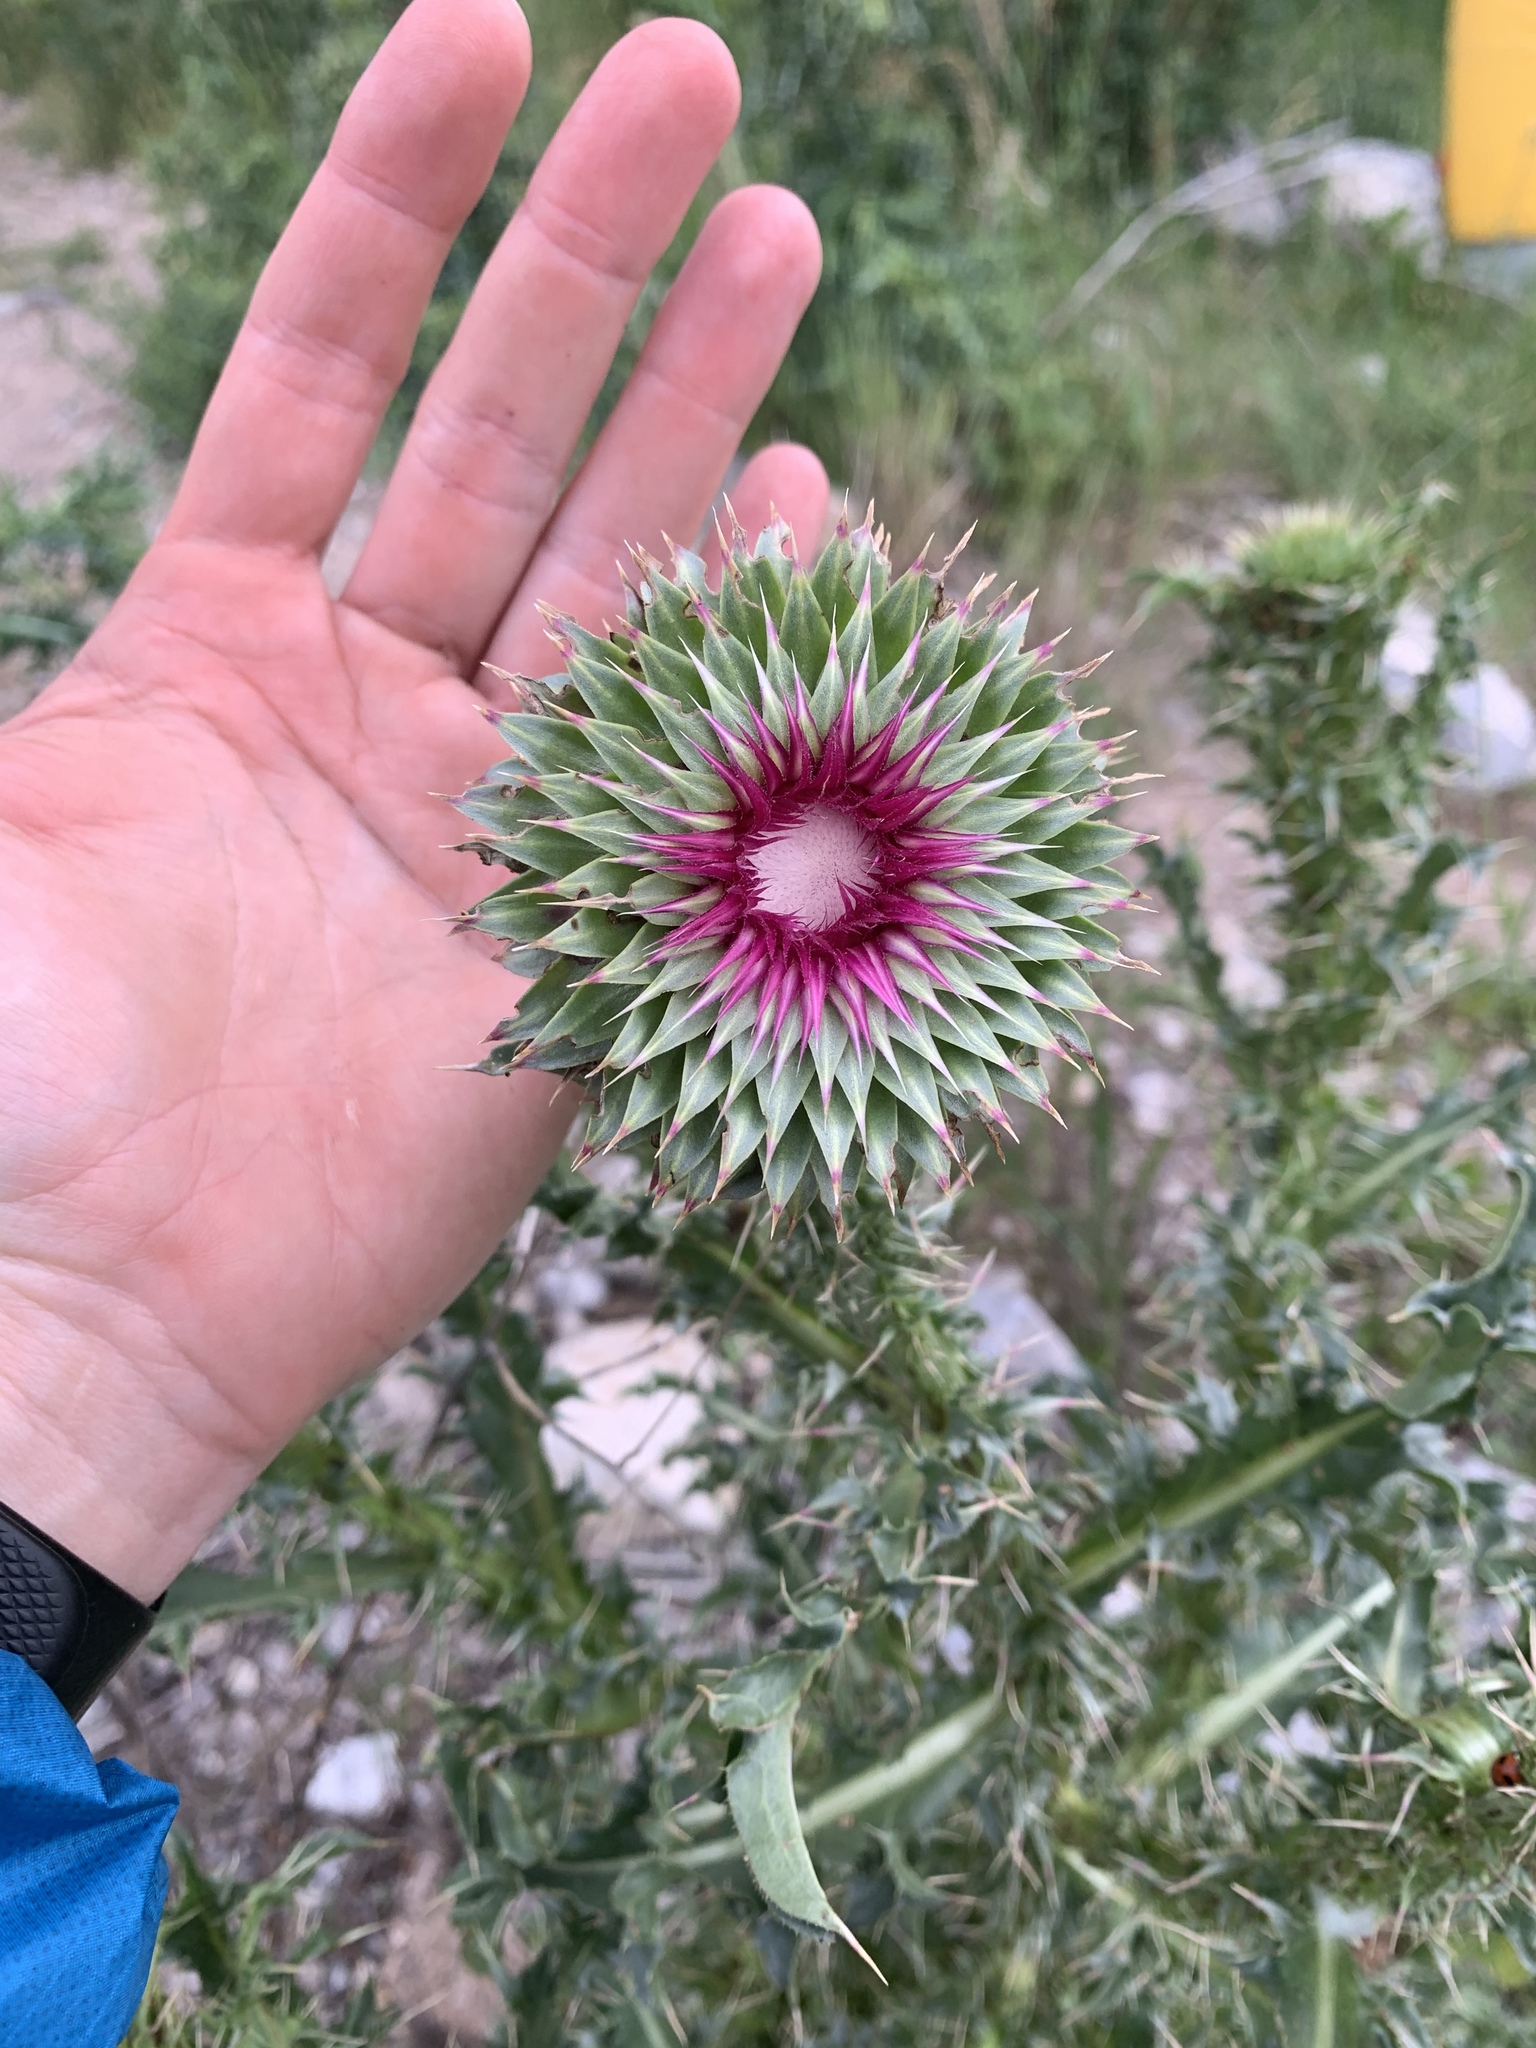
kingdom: Plantae
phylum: Tracheophyta
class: Magnoliopsida
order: Asterales
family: Asteraceae
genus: Carduus
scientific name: Carduus nutans
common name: Musk thistle
